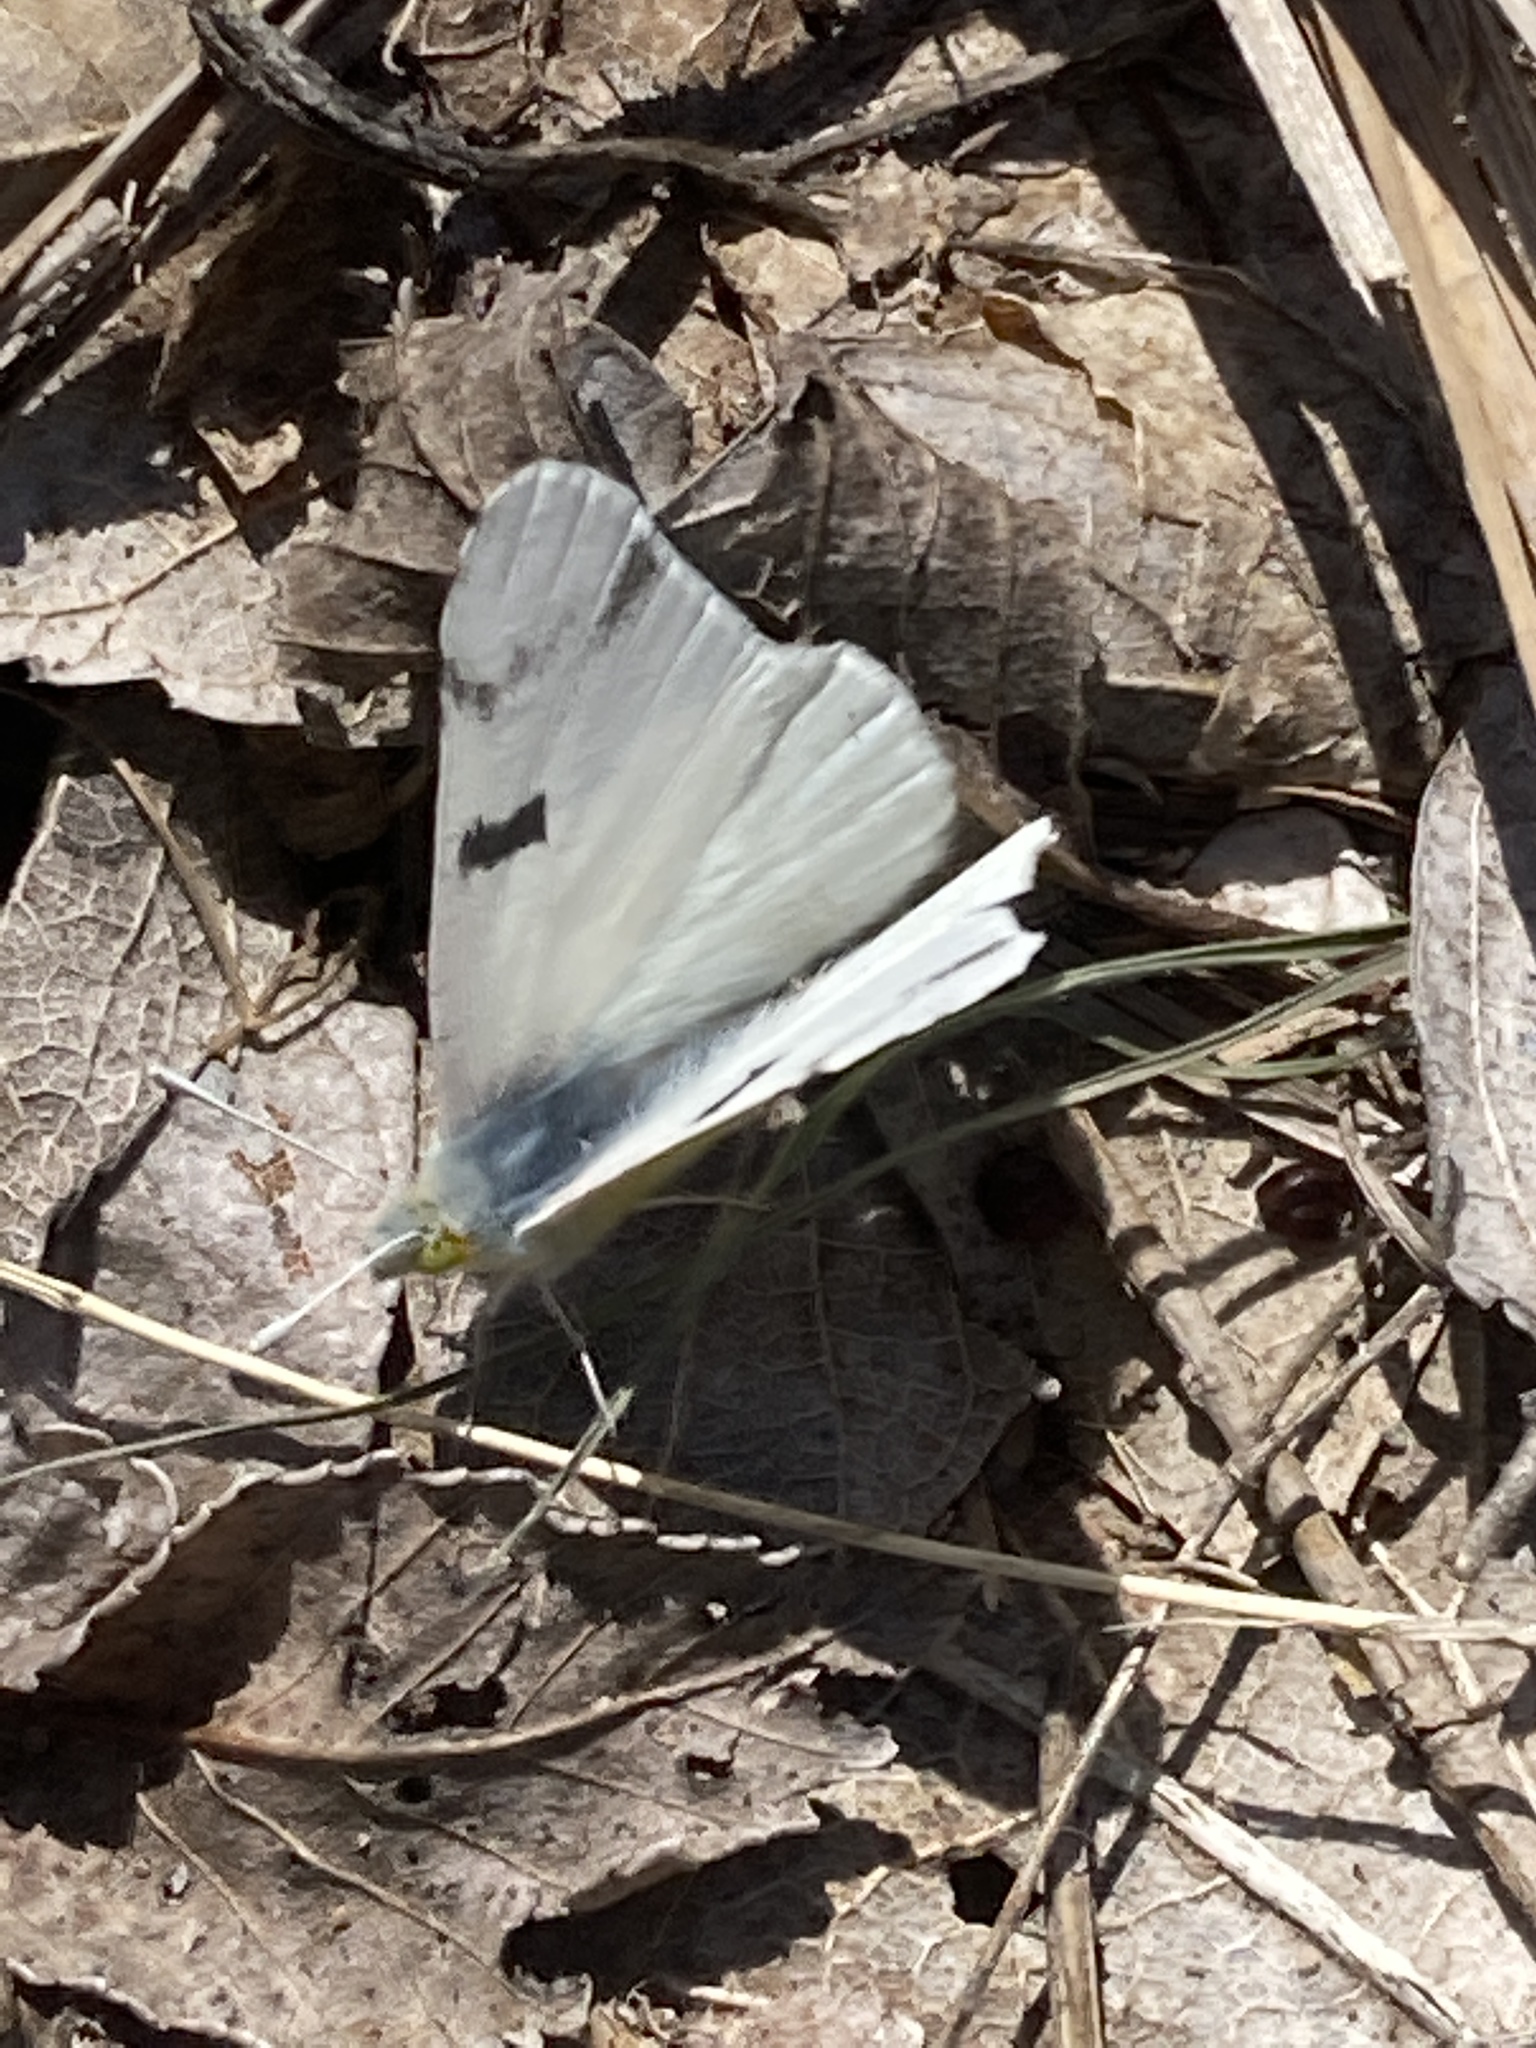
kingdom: Animalia
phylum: Arthropoda
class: Insecta
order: Lepidoptera
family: Pieridae
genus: Euchloe
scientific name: Euchloe olympia
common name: Olympia
